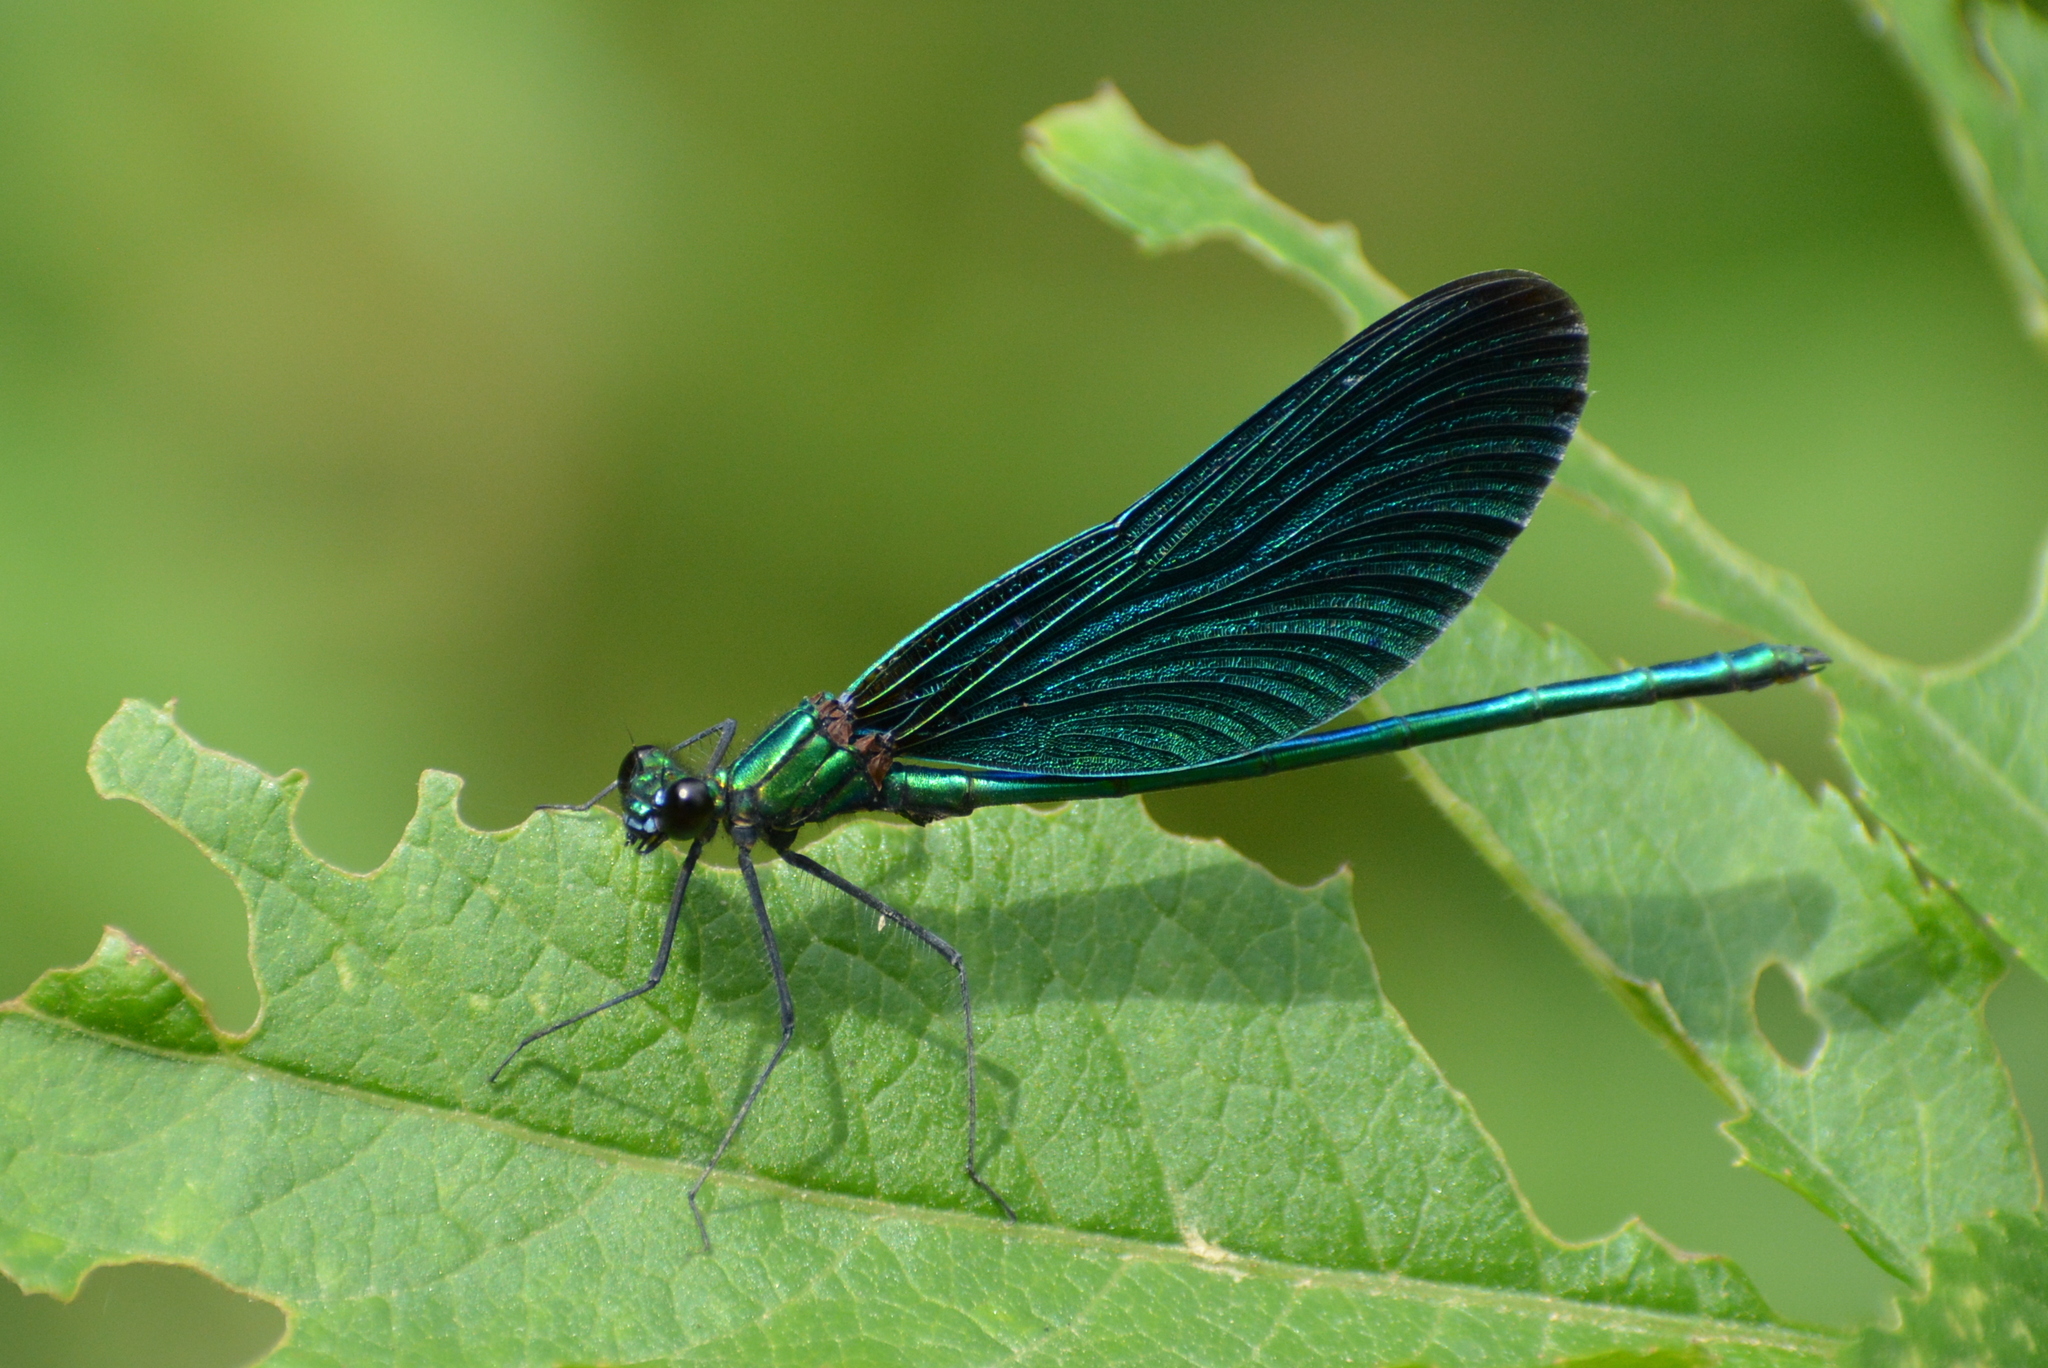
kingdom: Animalia
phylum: Arthropoda
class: Insecta
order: Odonata
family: Calopterygidae
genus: Calopteryx
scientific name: Calopteryx virgo
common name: Beautiful demoiselle
